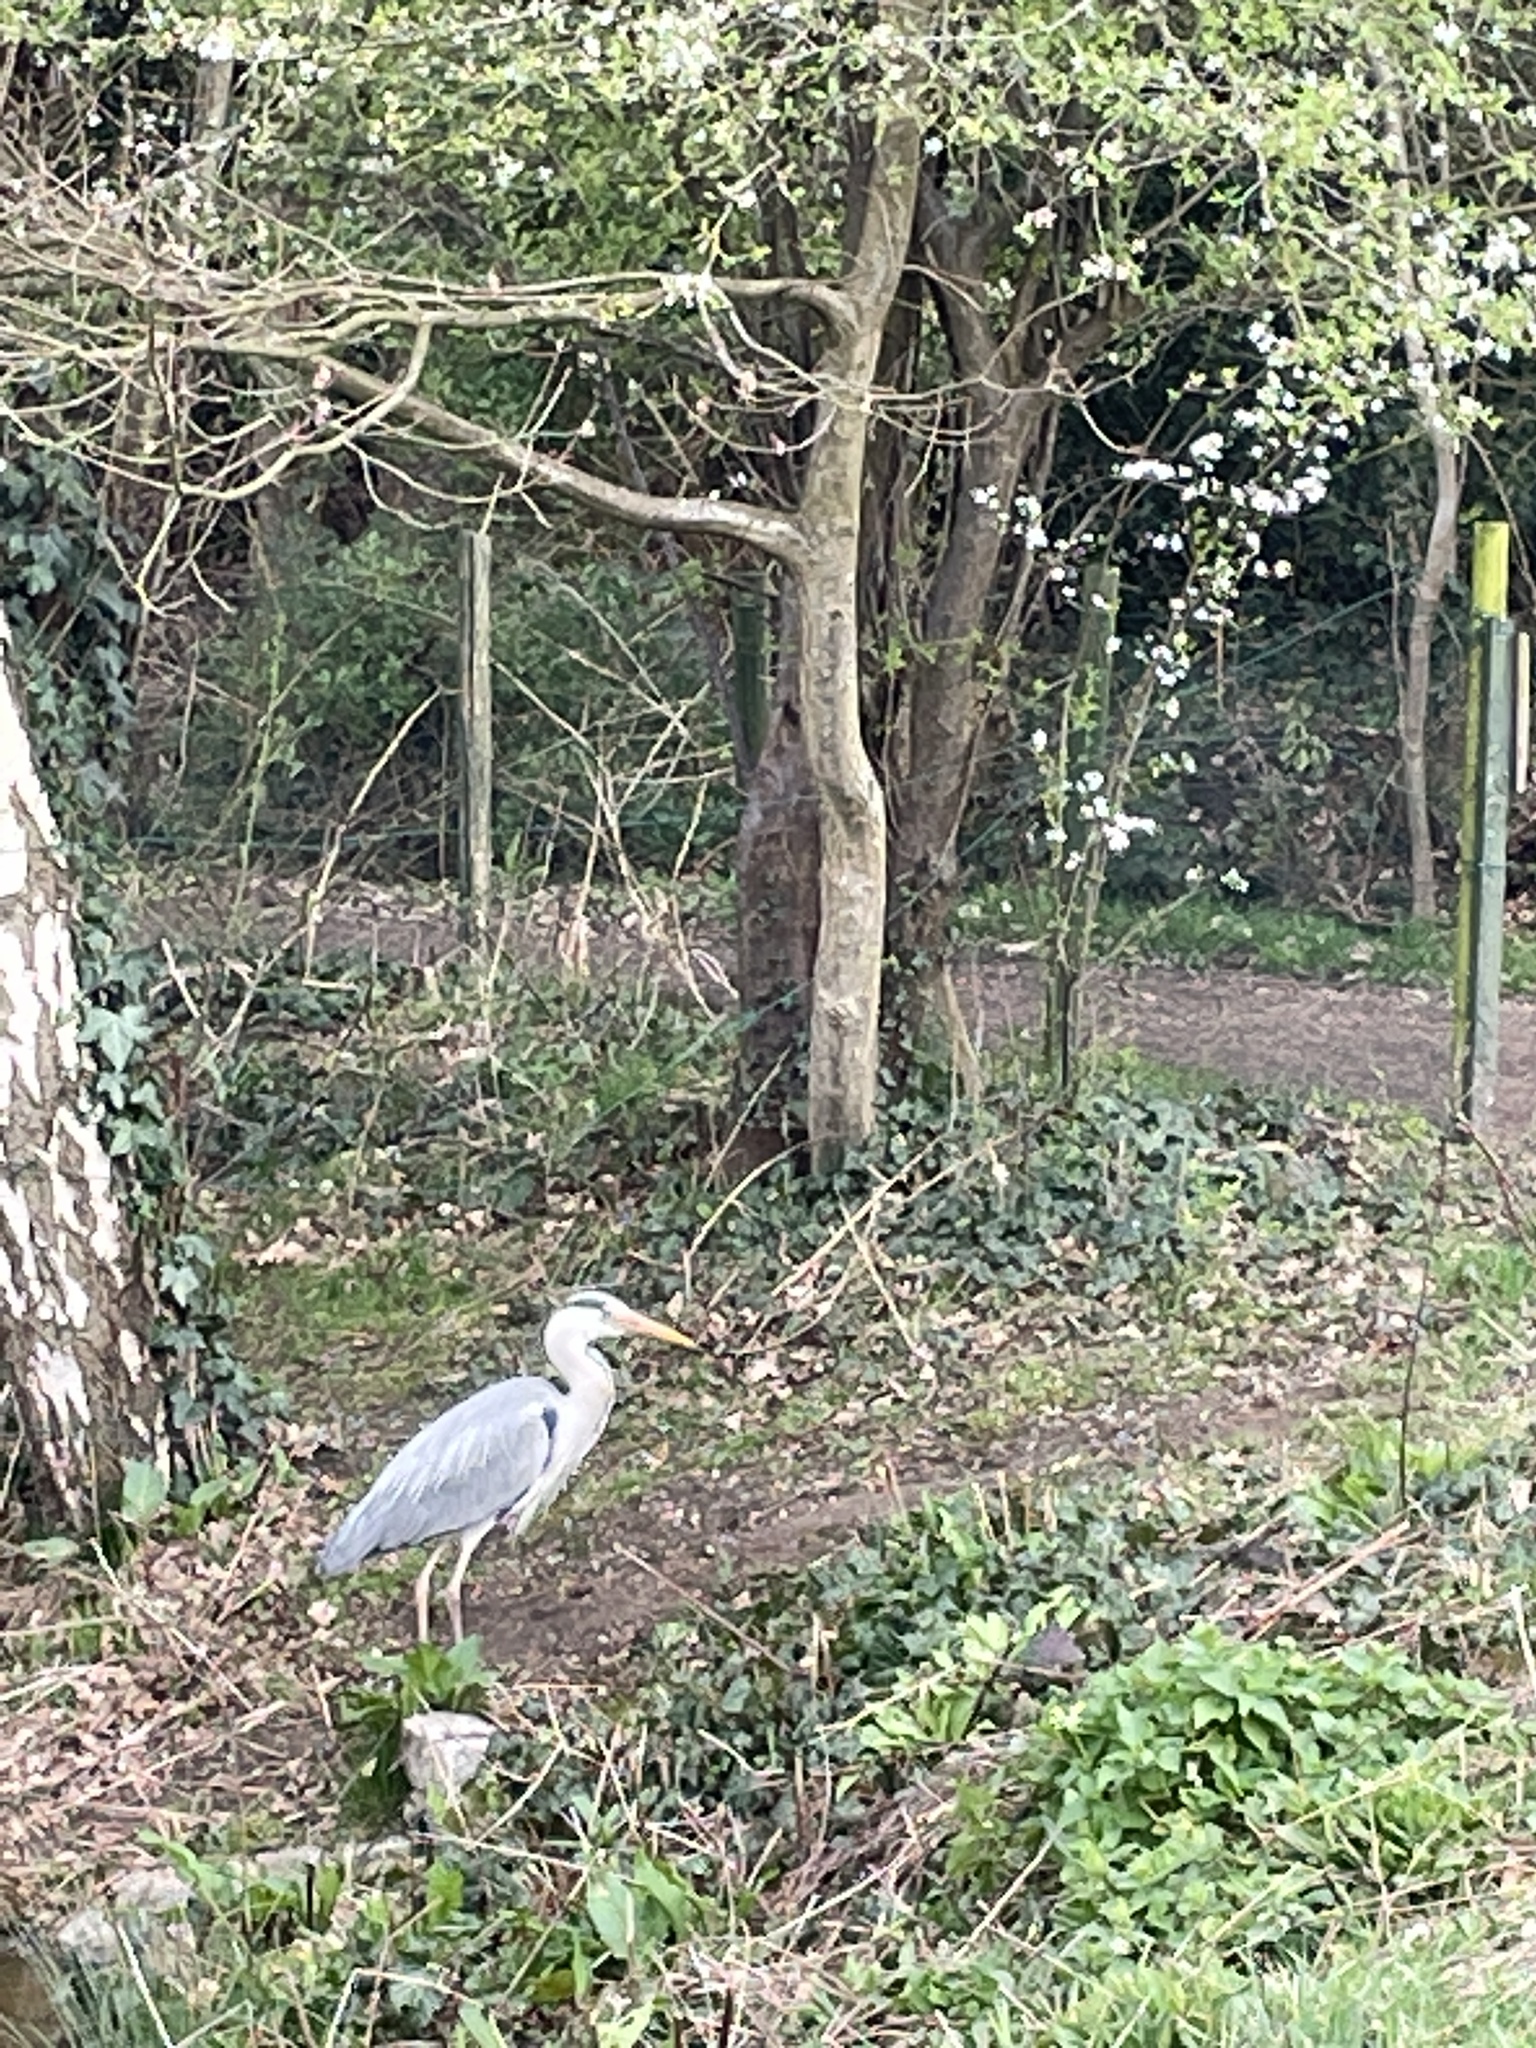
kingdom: Animalia
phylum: Chordata
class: Aves
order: Pelecaniformes
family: Ardeidae
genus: Ardea
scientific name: Ardea cinerea
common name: Grey heron
